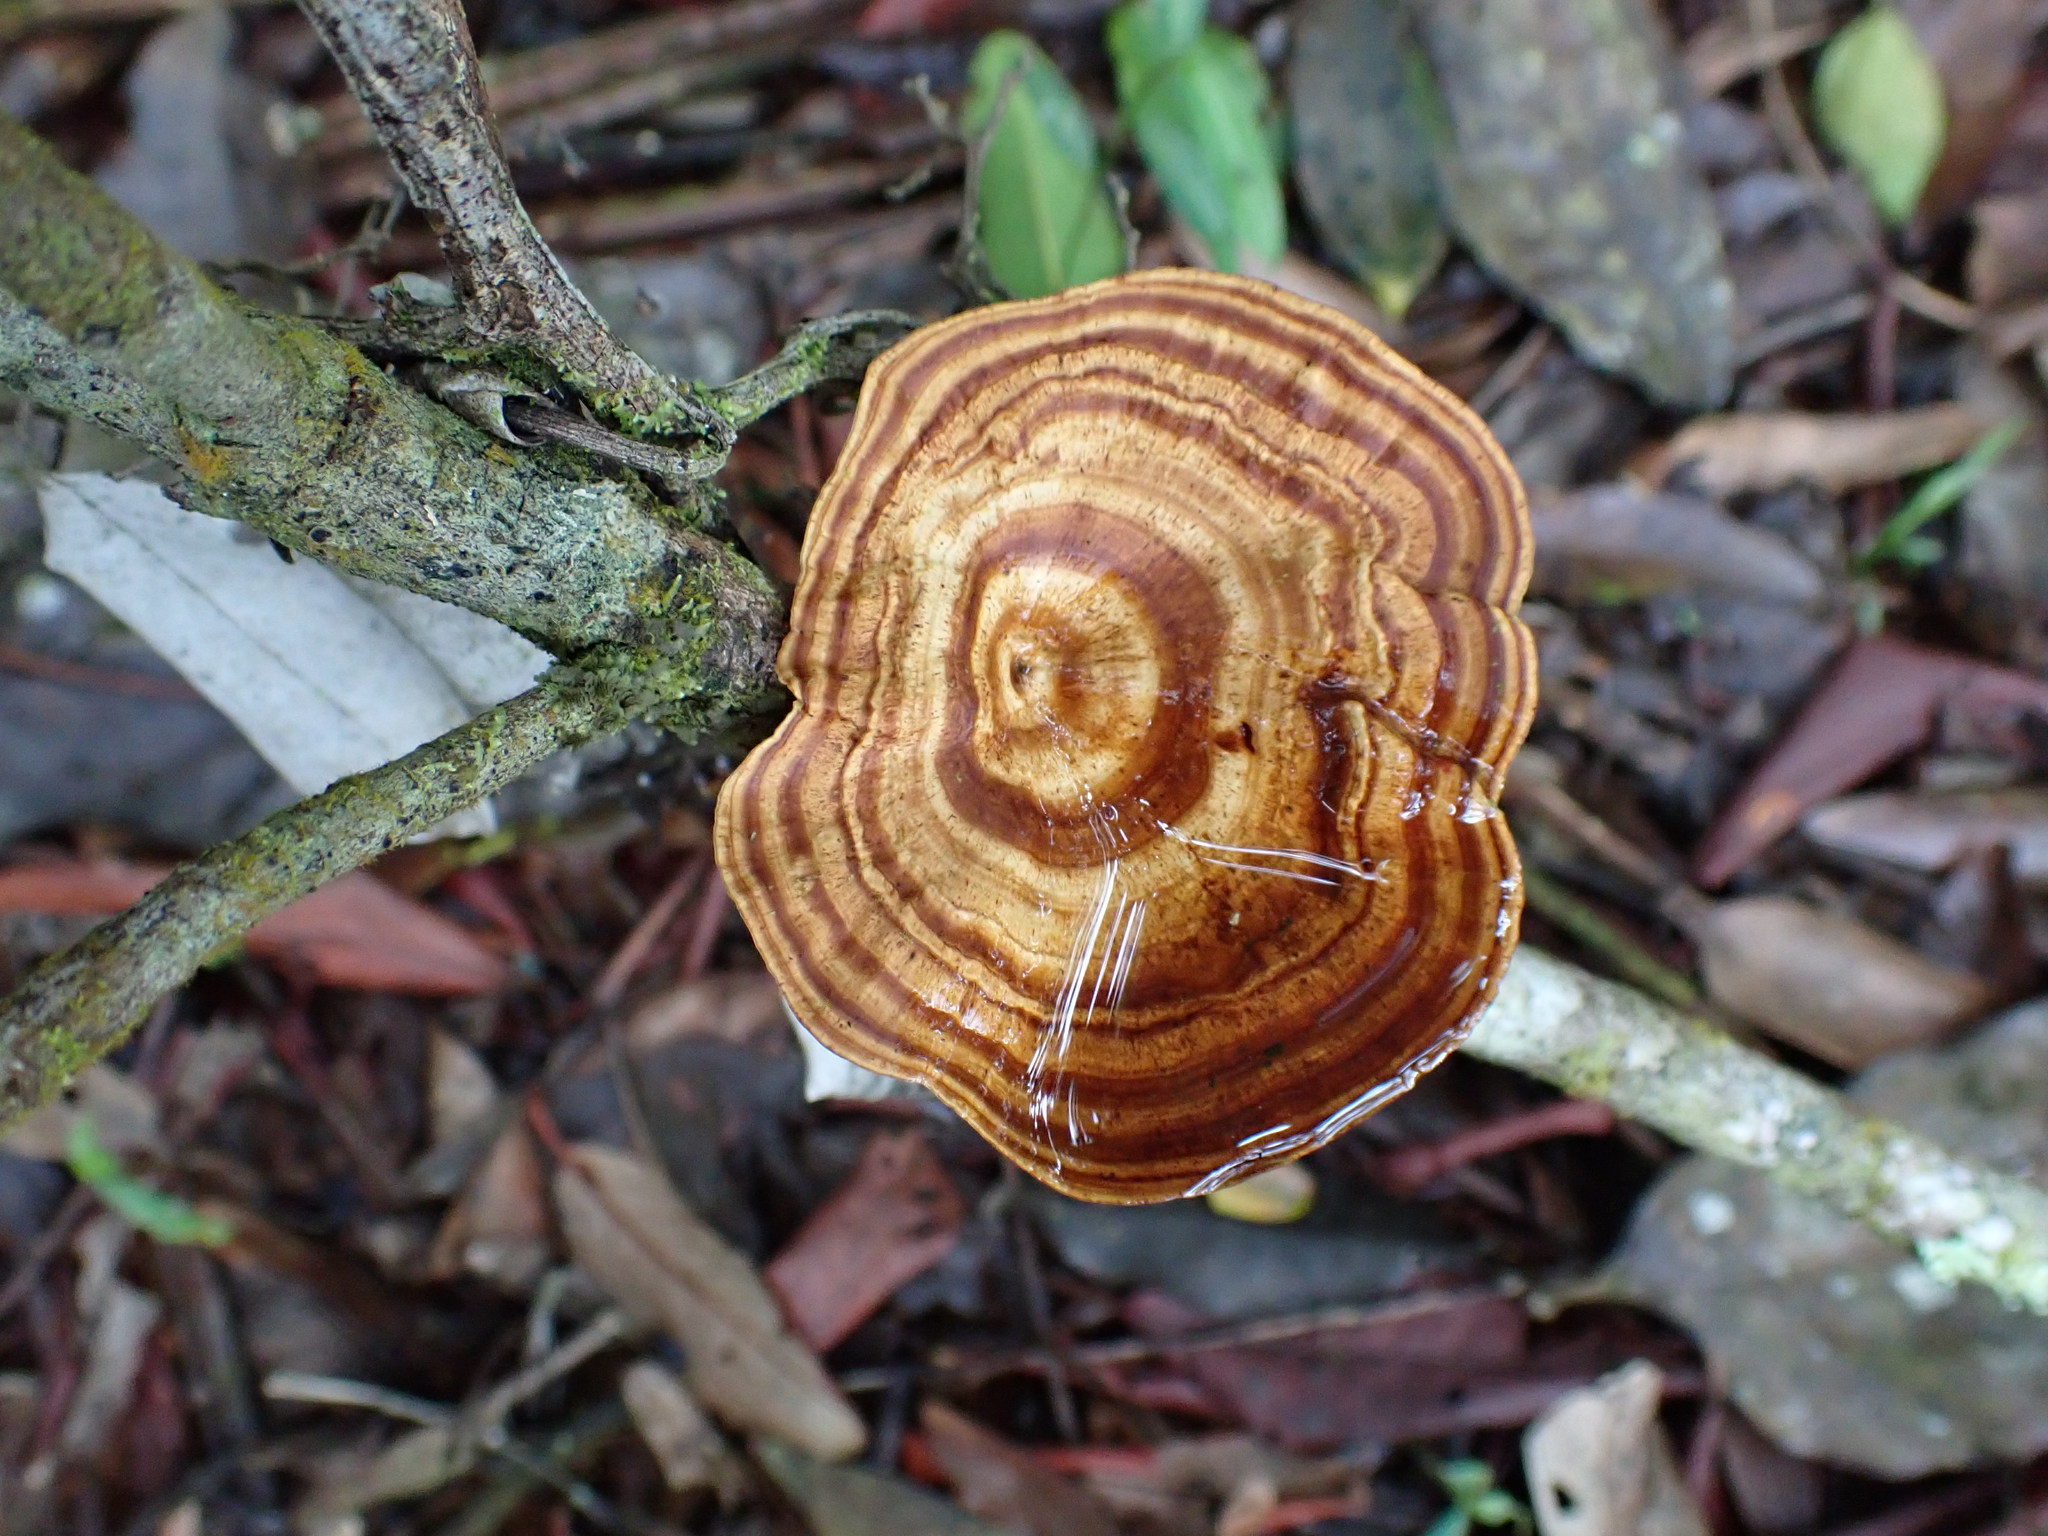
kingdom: Fungi
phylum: Basidiomycota
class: Agaricomycetes
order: Polyporales
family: Polyporaceae
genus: Microporus
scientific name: Microporus xanthopus
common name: Yellow-stemmed micropore
